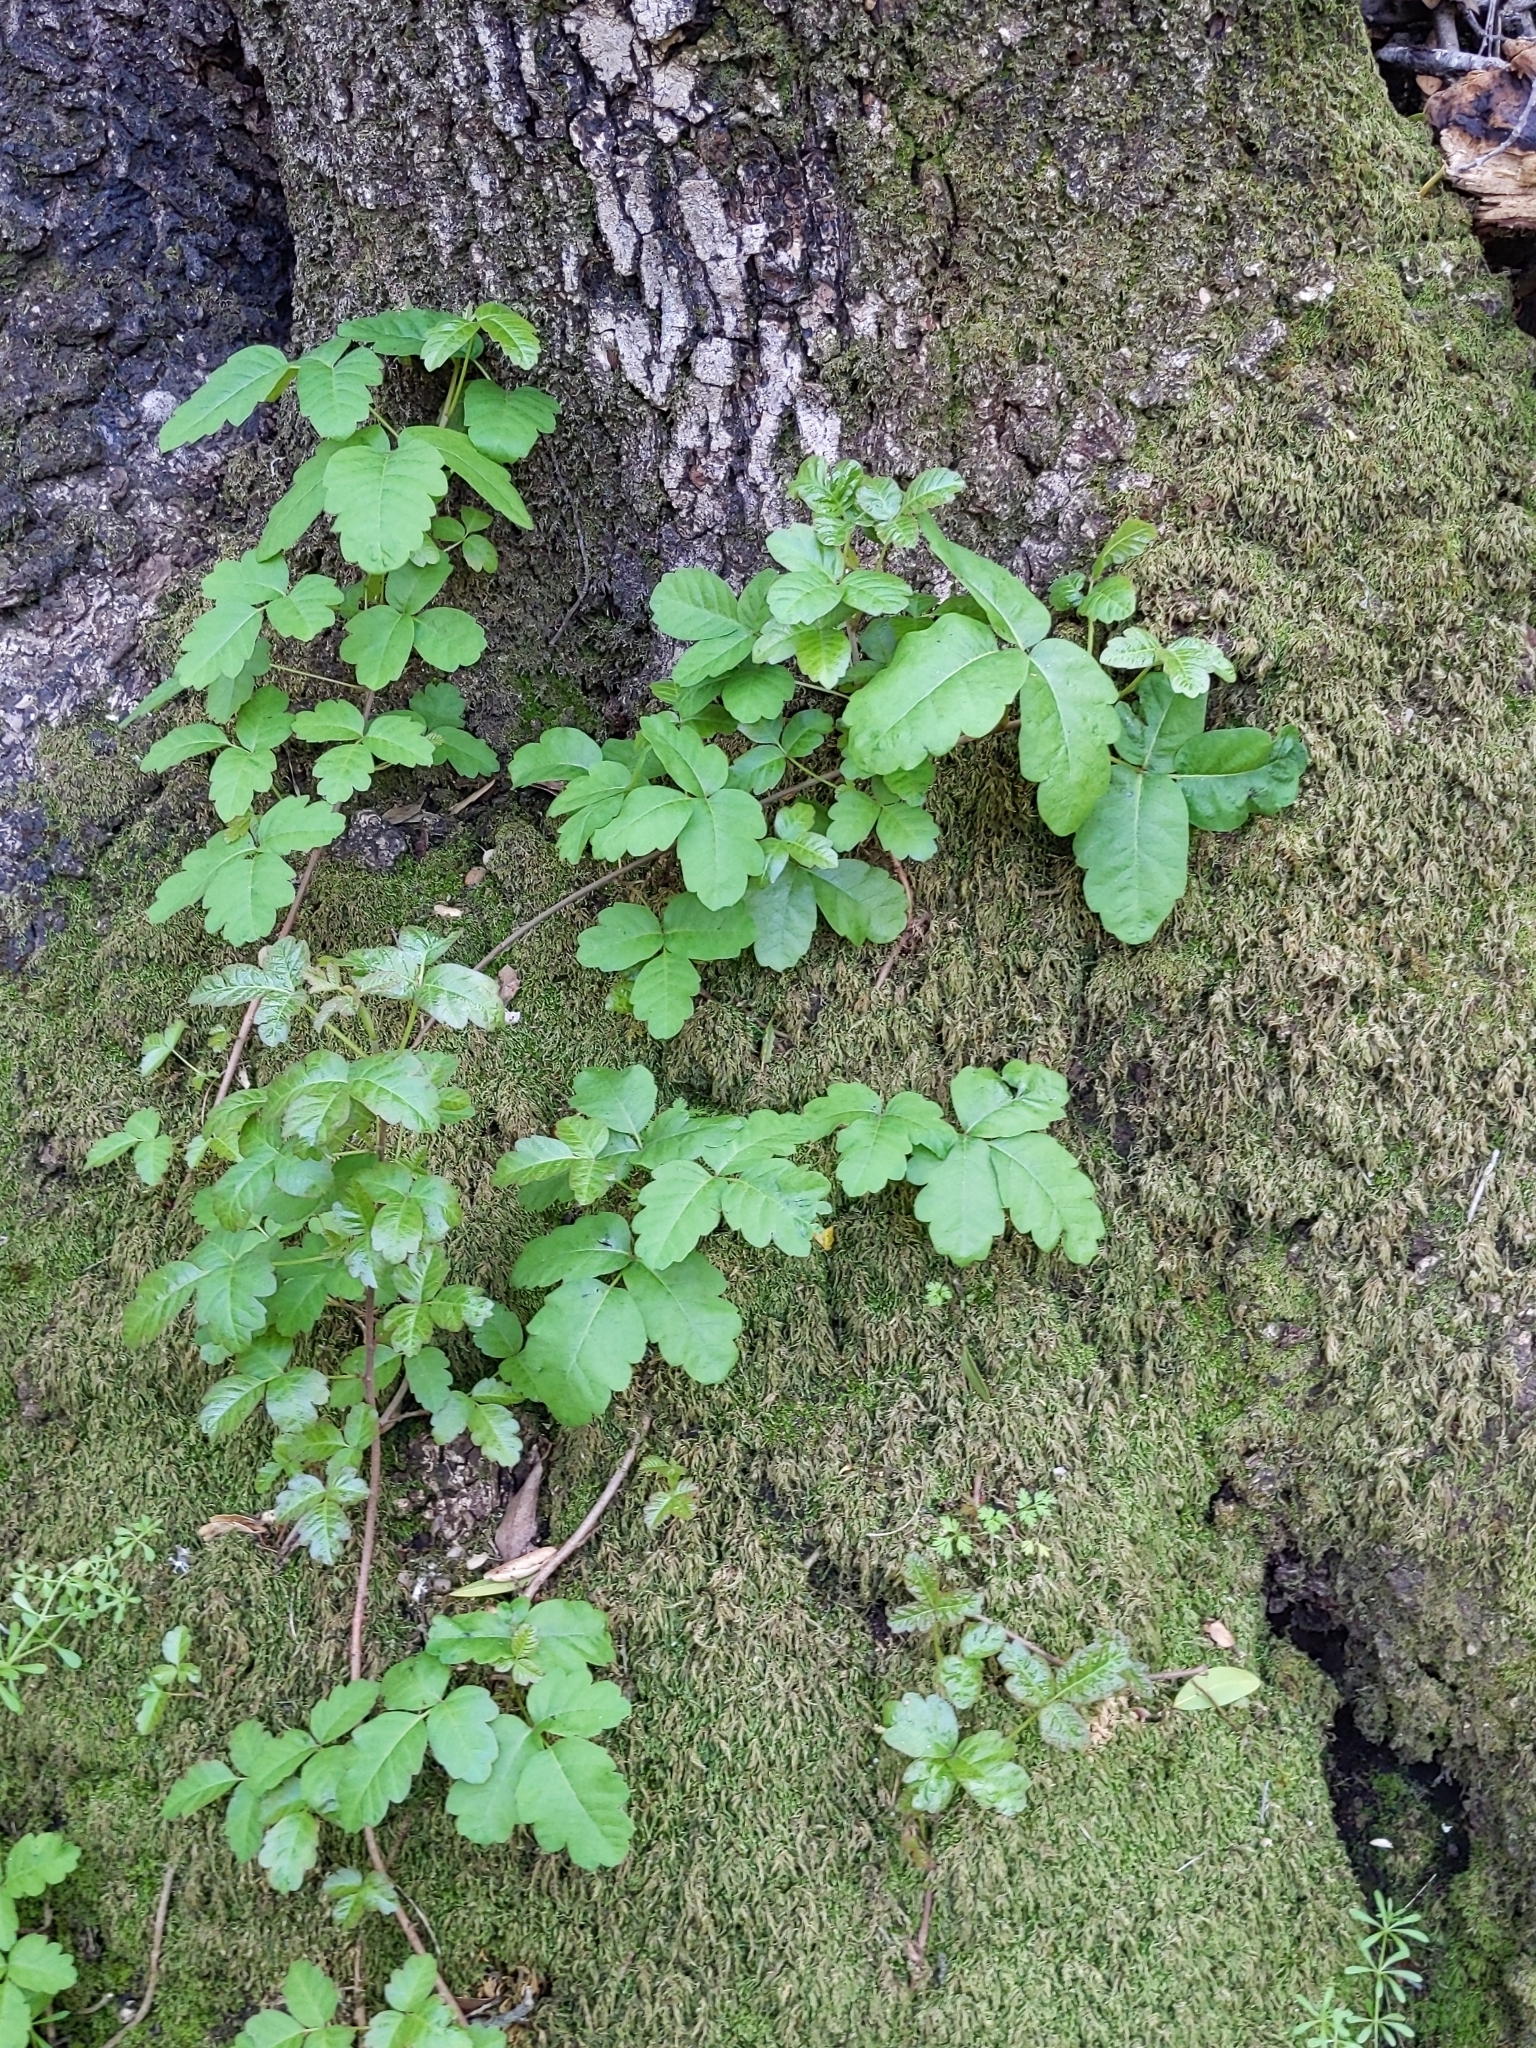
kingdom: Plantae
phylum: Tracheophyta
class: Magnoliopsida
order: Sapindales
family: Anacardiaceae
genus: Toxicodendron
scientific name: Toxicodendron diversilobum
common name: Pacific poison-oak
